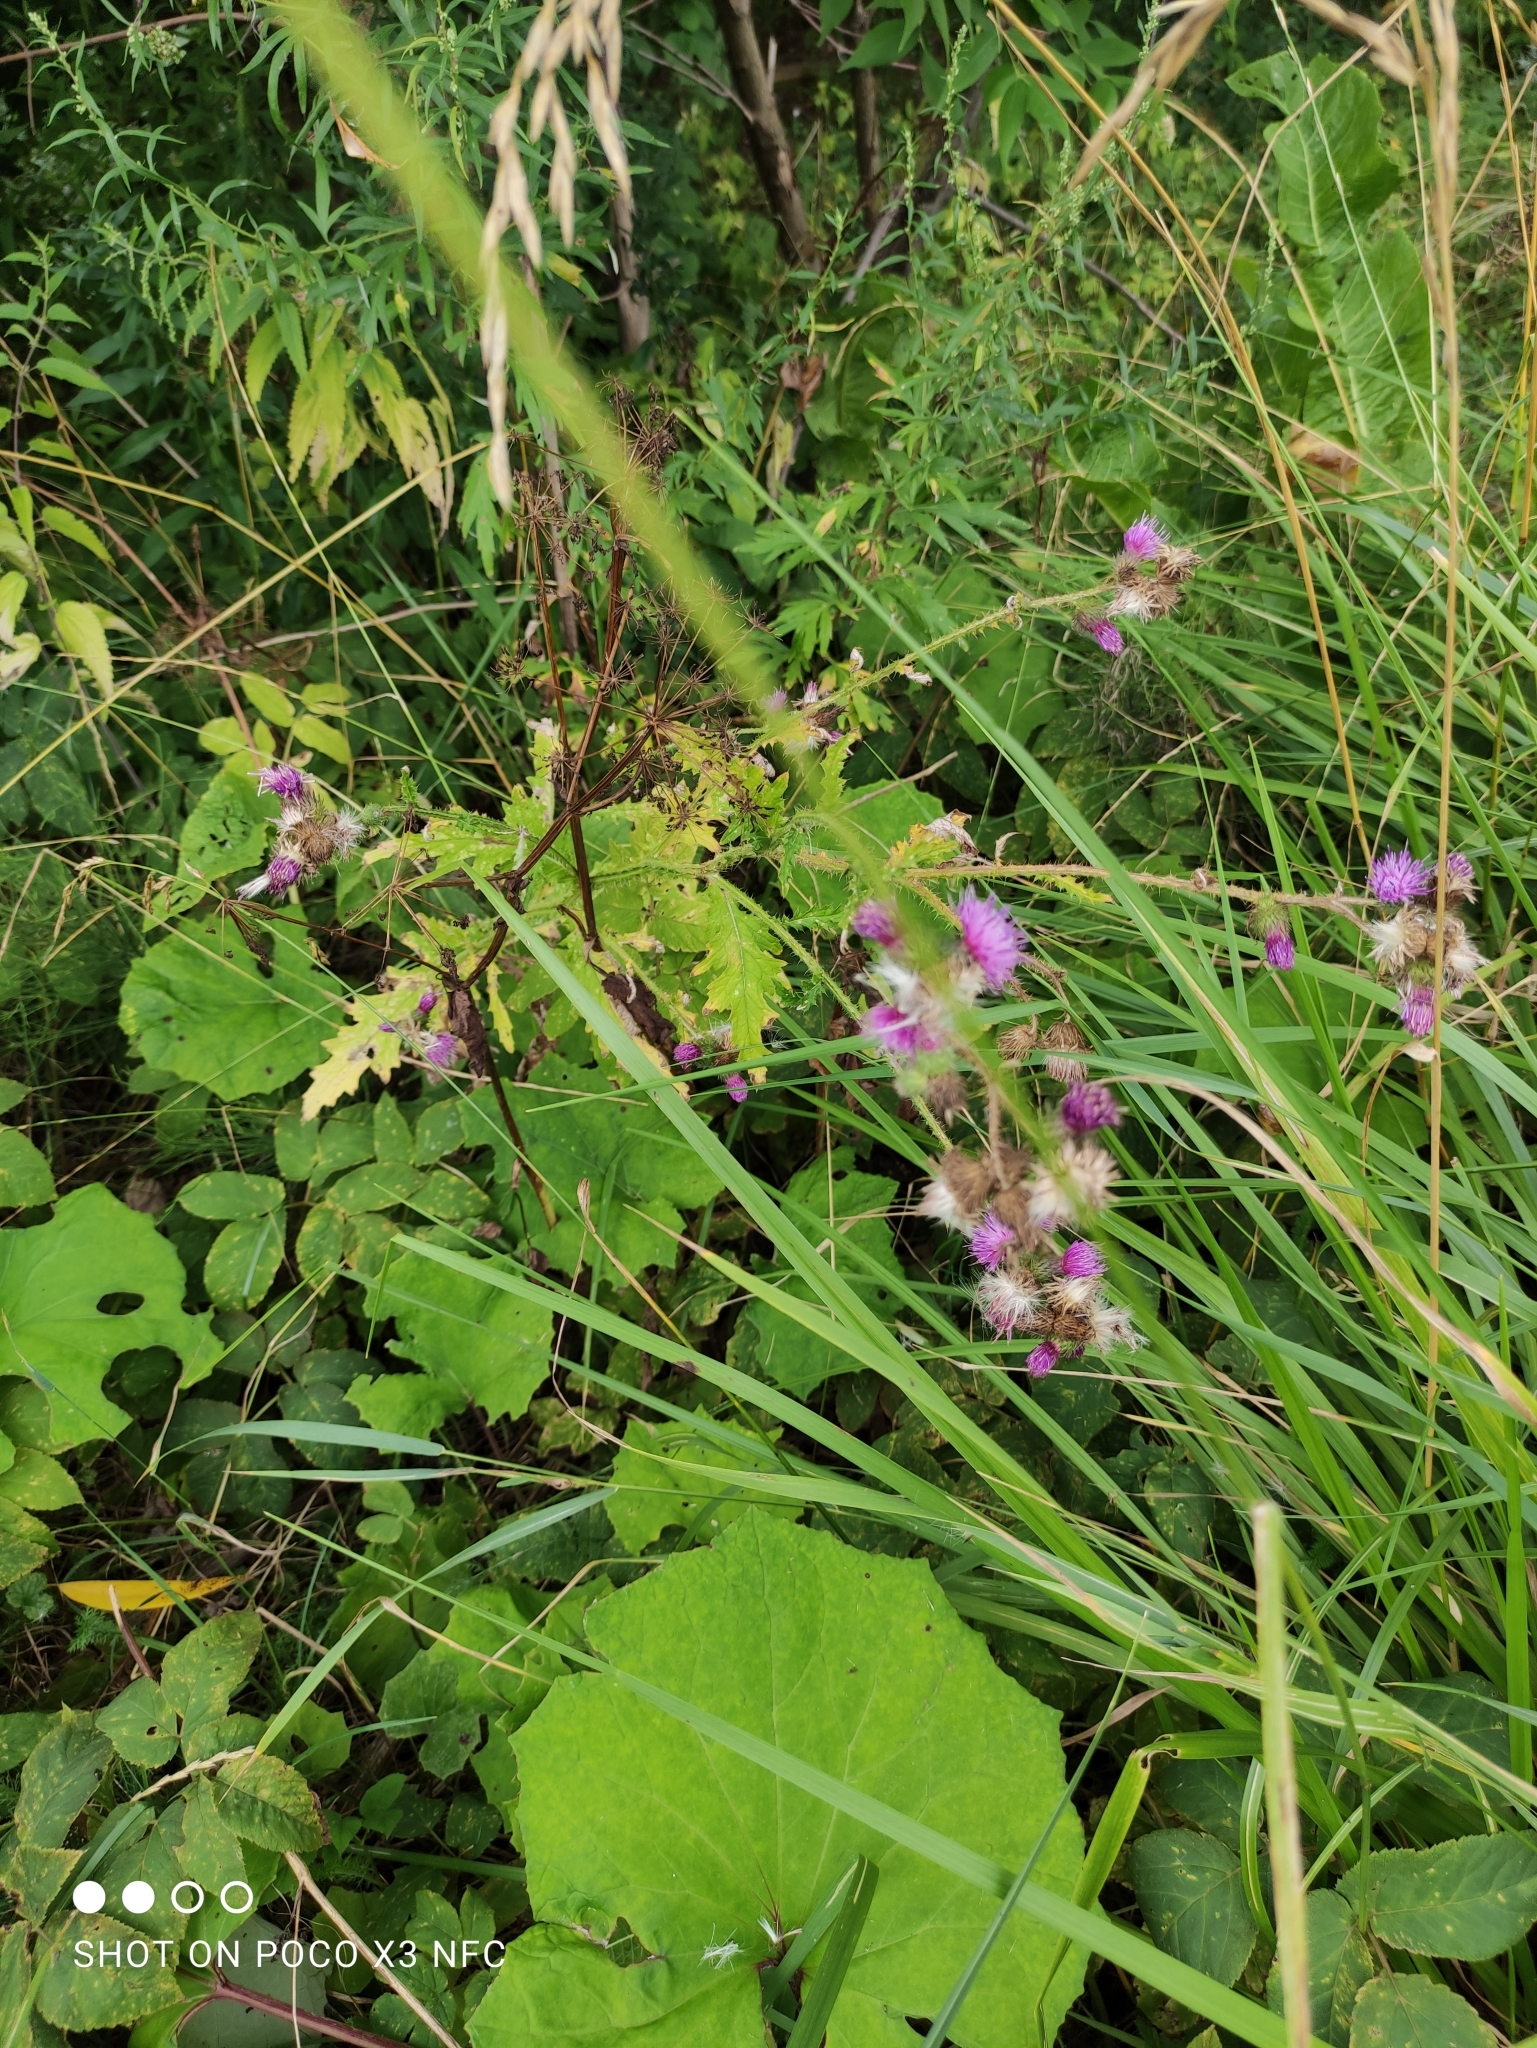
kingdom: Plantae
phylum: Tracheophyta
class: Magnoliopsida
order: Asterales
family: Asteraceae
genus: Carduus
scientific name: Carduus crispus
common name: Welted thistle
